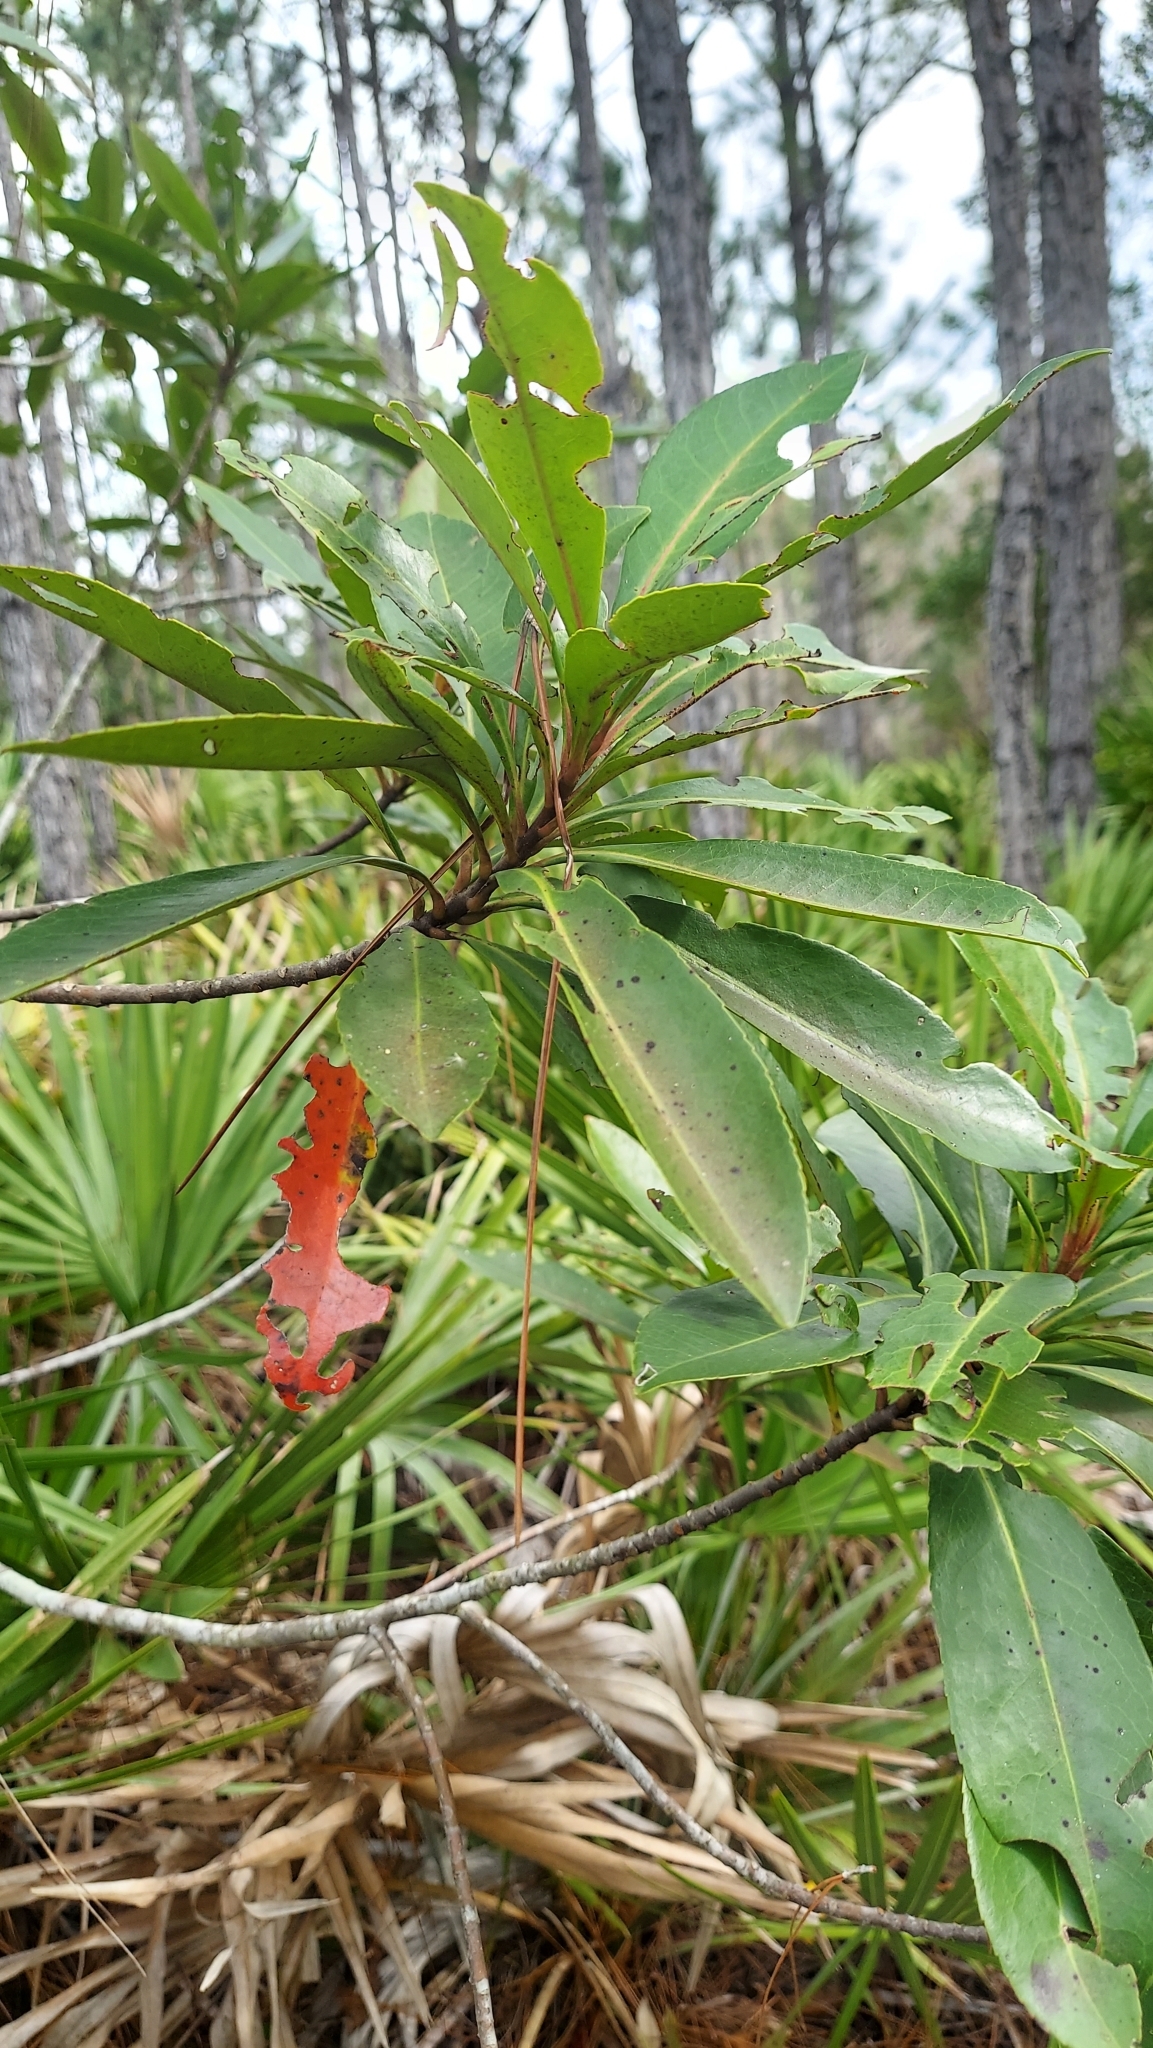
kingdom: Plantae
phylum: Tracheophyta
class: Magnoliopsida
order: Ericales
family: Theaceae
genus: Gordonia
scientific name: Gordonia lasianthus
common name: Loblolly bay
